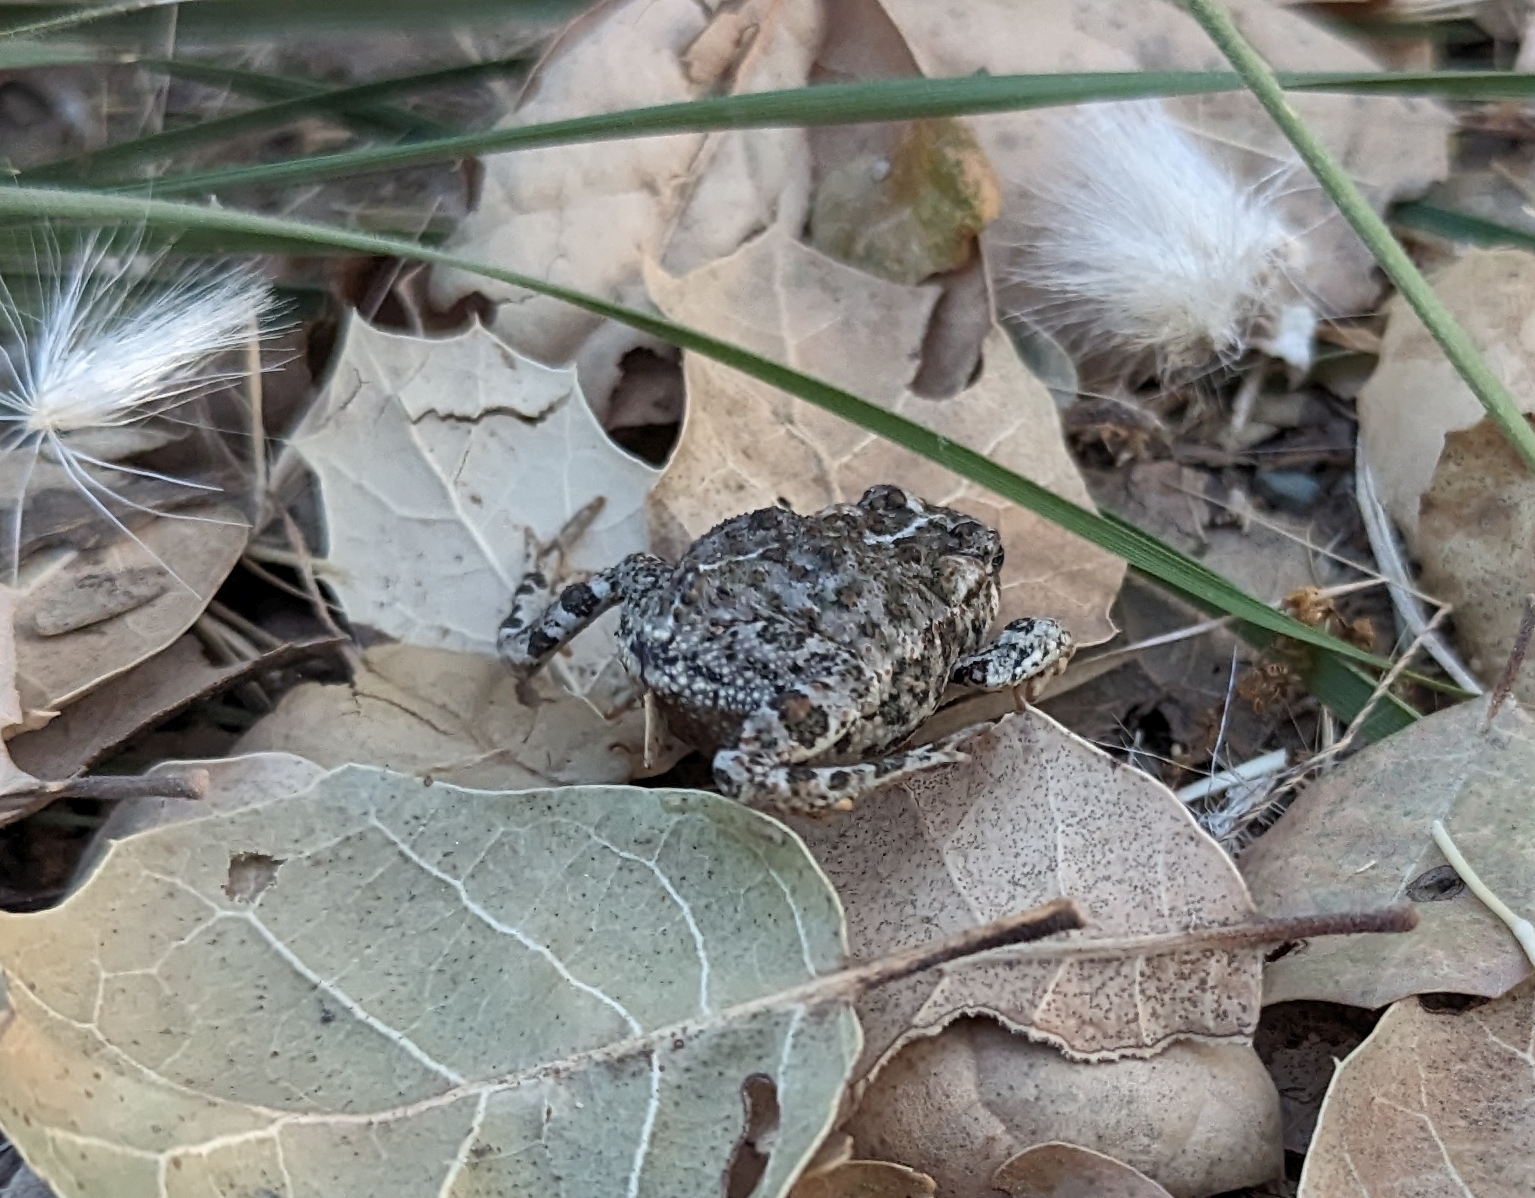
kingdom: Animalia
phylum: Chordata
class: Amphibia
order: Anura
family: Bufonidae
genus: Anaxyrus
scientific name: Anaxyrus boreas
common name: Western toad
